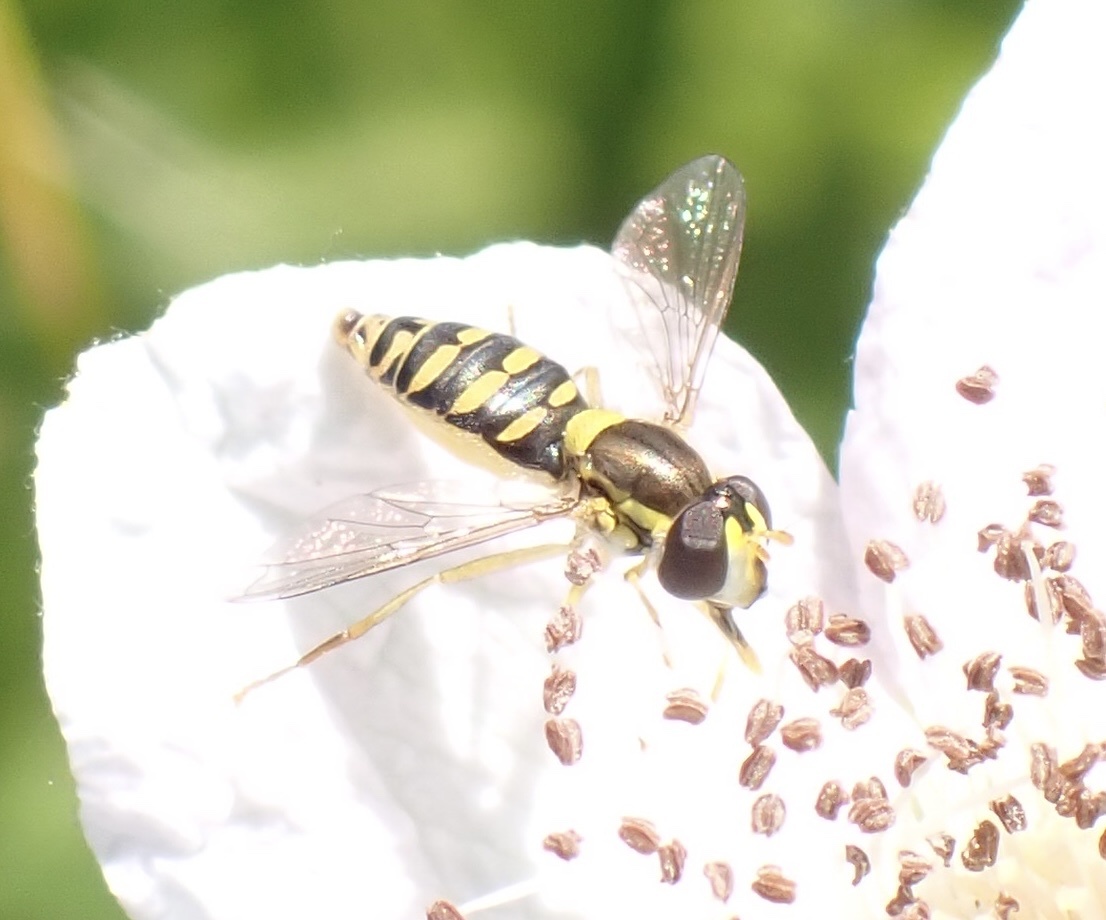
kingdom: Animalia
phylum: Arthropoda
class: Insecta
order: Diptera
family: Syrphidae
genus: Sphaerophoria
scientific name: Sphaerophoria
